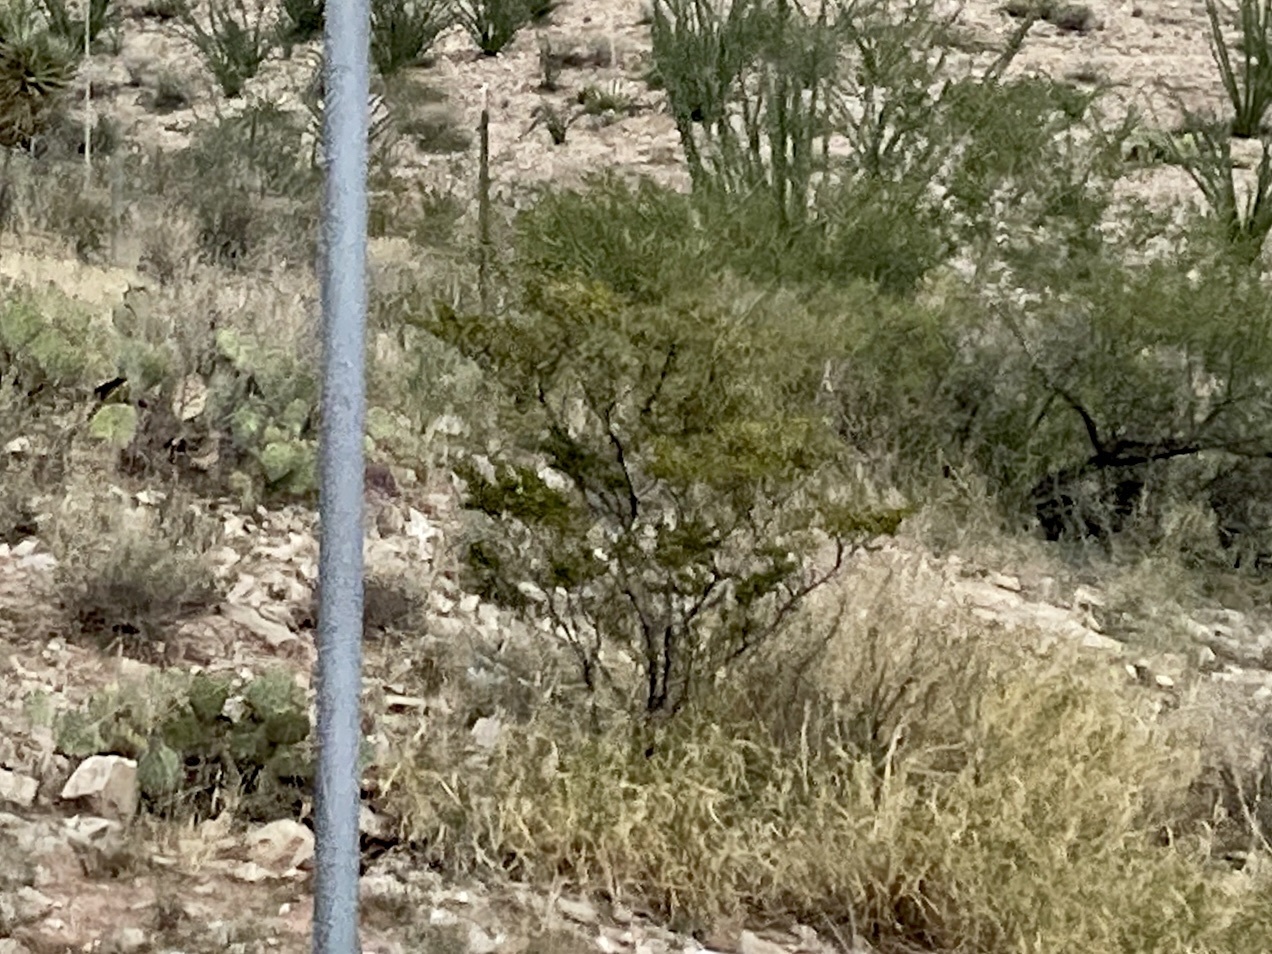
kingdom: Plantae
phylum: Tracheophyta
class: Magnoliopsida
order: Zygophyllales
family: Zygophyllaceae
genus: Larrea
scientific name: Larrea tridentata
